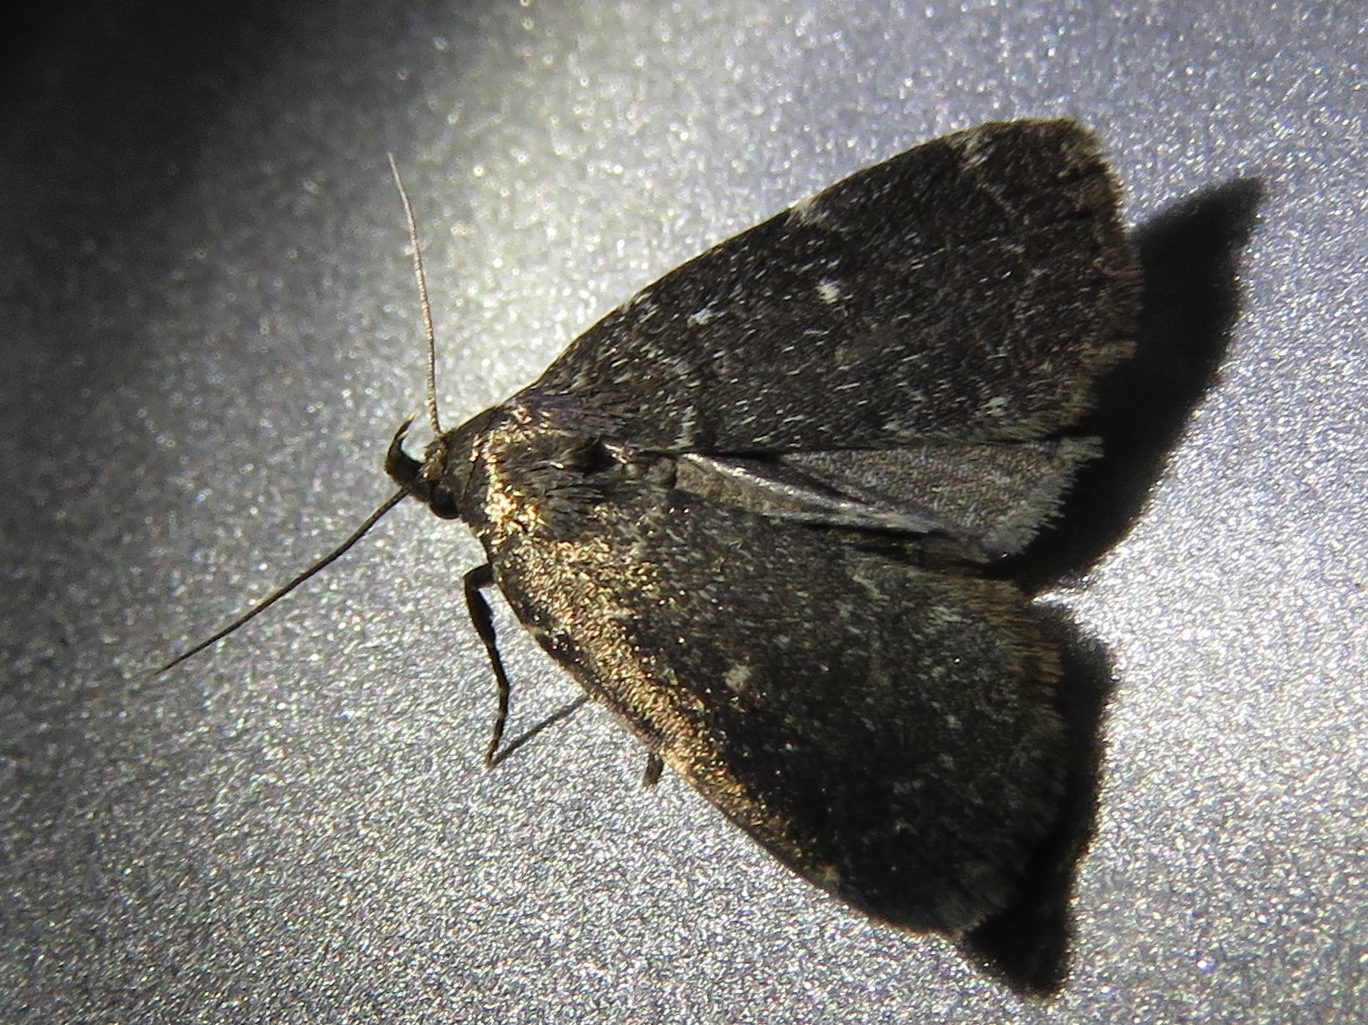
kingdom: Animalia
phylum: Arthropoda
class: Insecta
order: Lepidoptera
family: Erebidae
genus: Idia
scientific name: Idia julia
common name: Julia's idia moth
